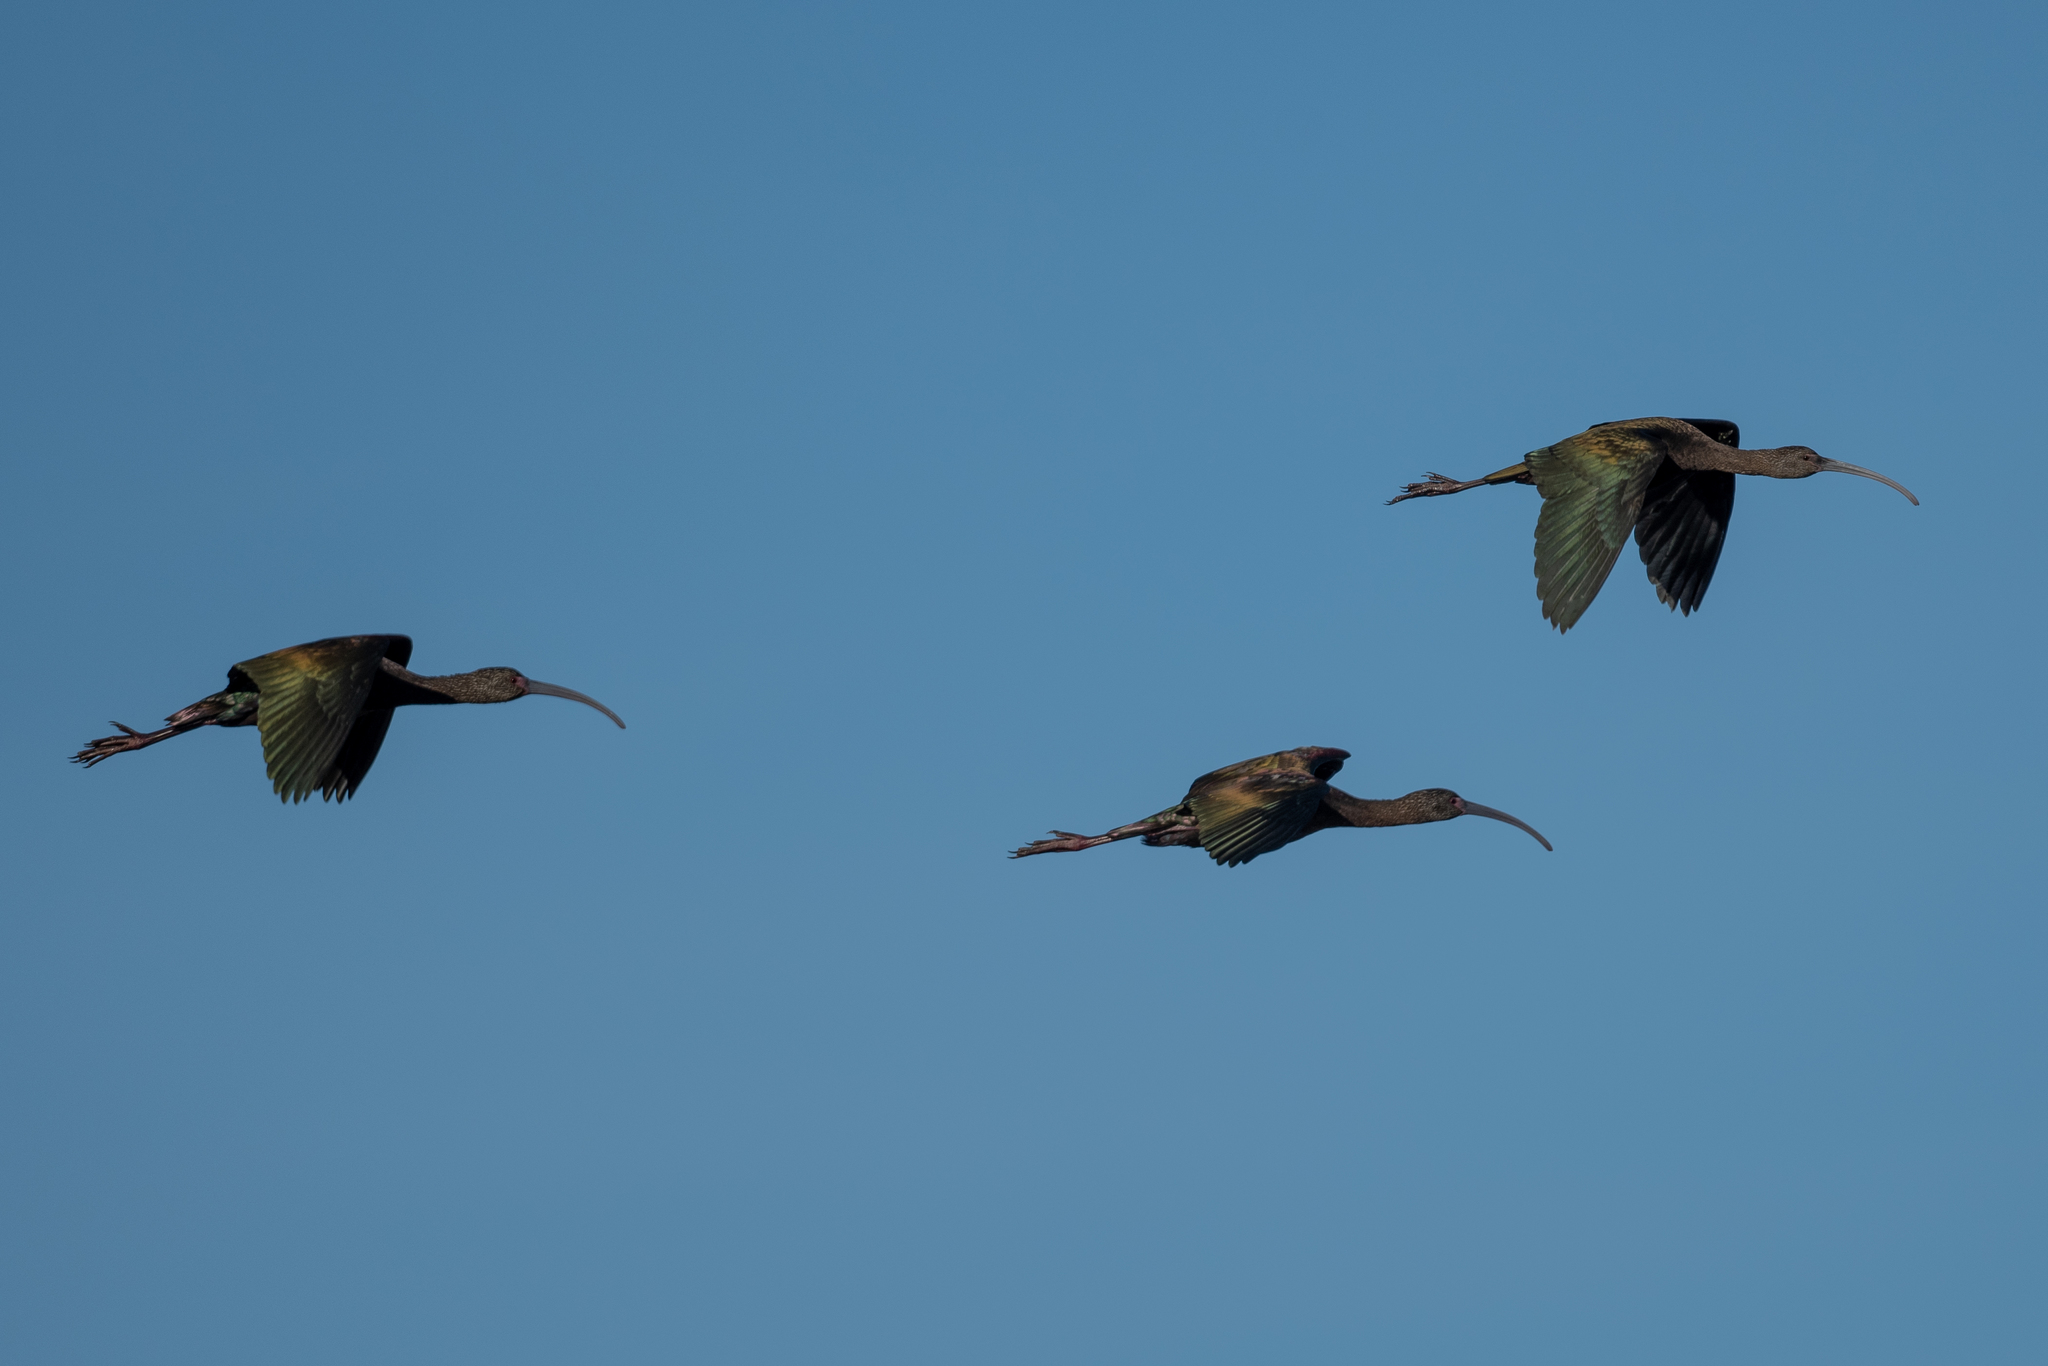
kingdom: Animalia
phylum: Chordata
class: Aves
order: Pelecaniformes
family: Threskiornithidae
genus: Plegadis
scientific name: Plegadis chihi
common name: White-faced ibis
